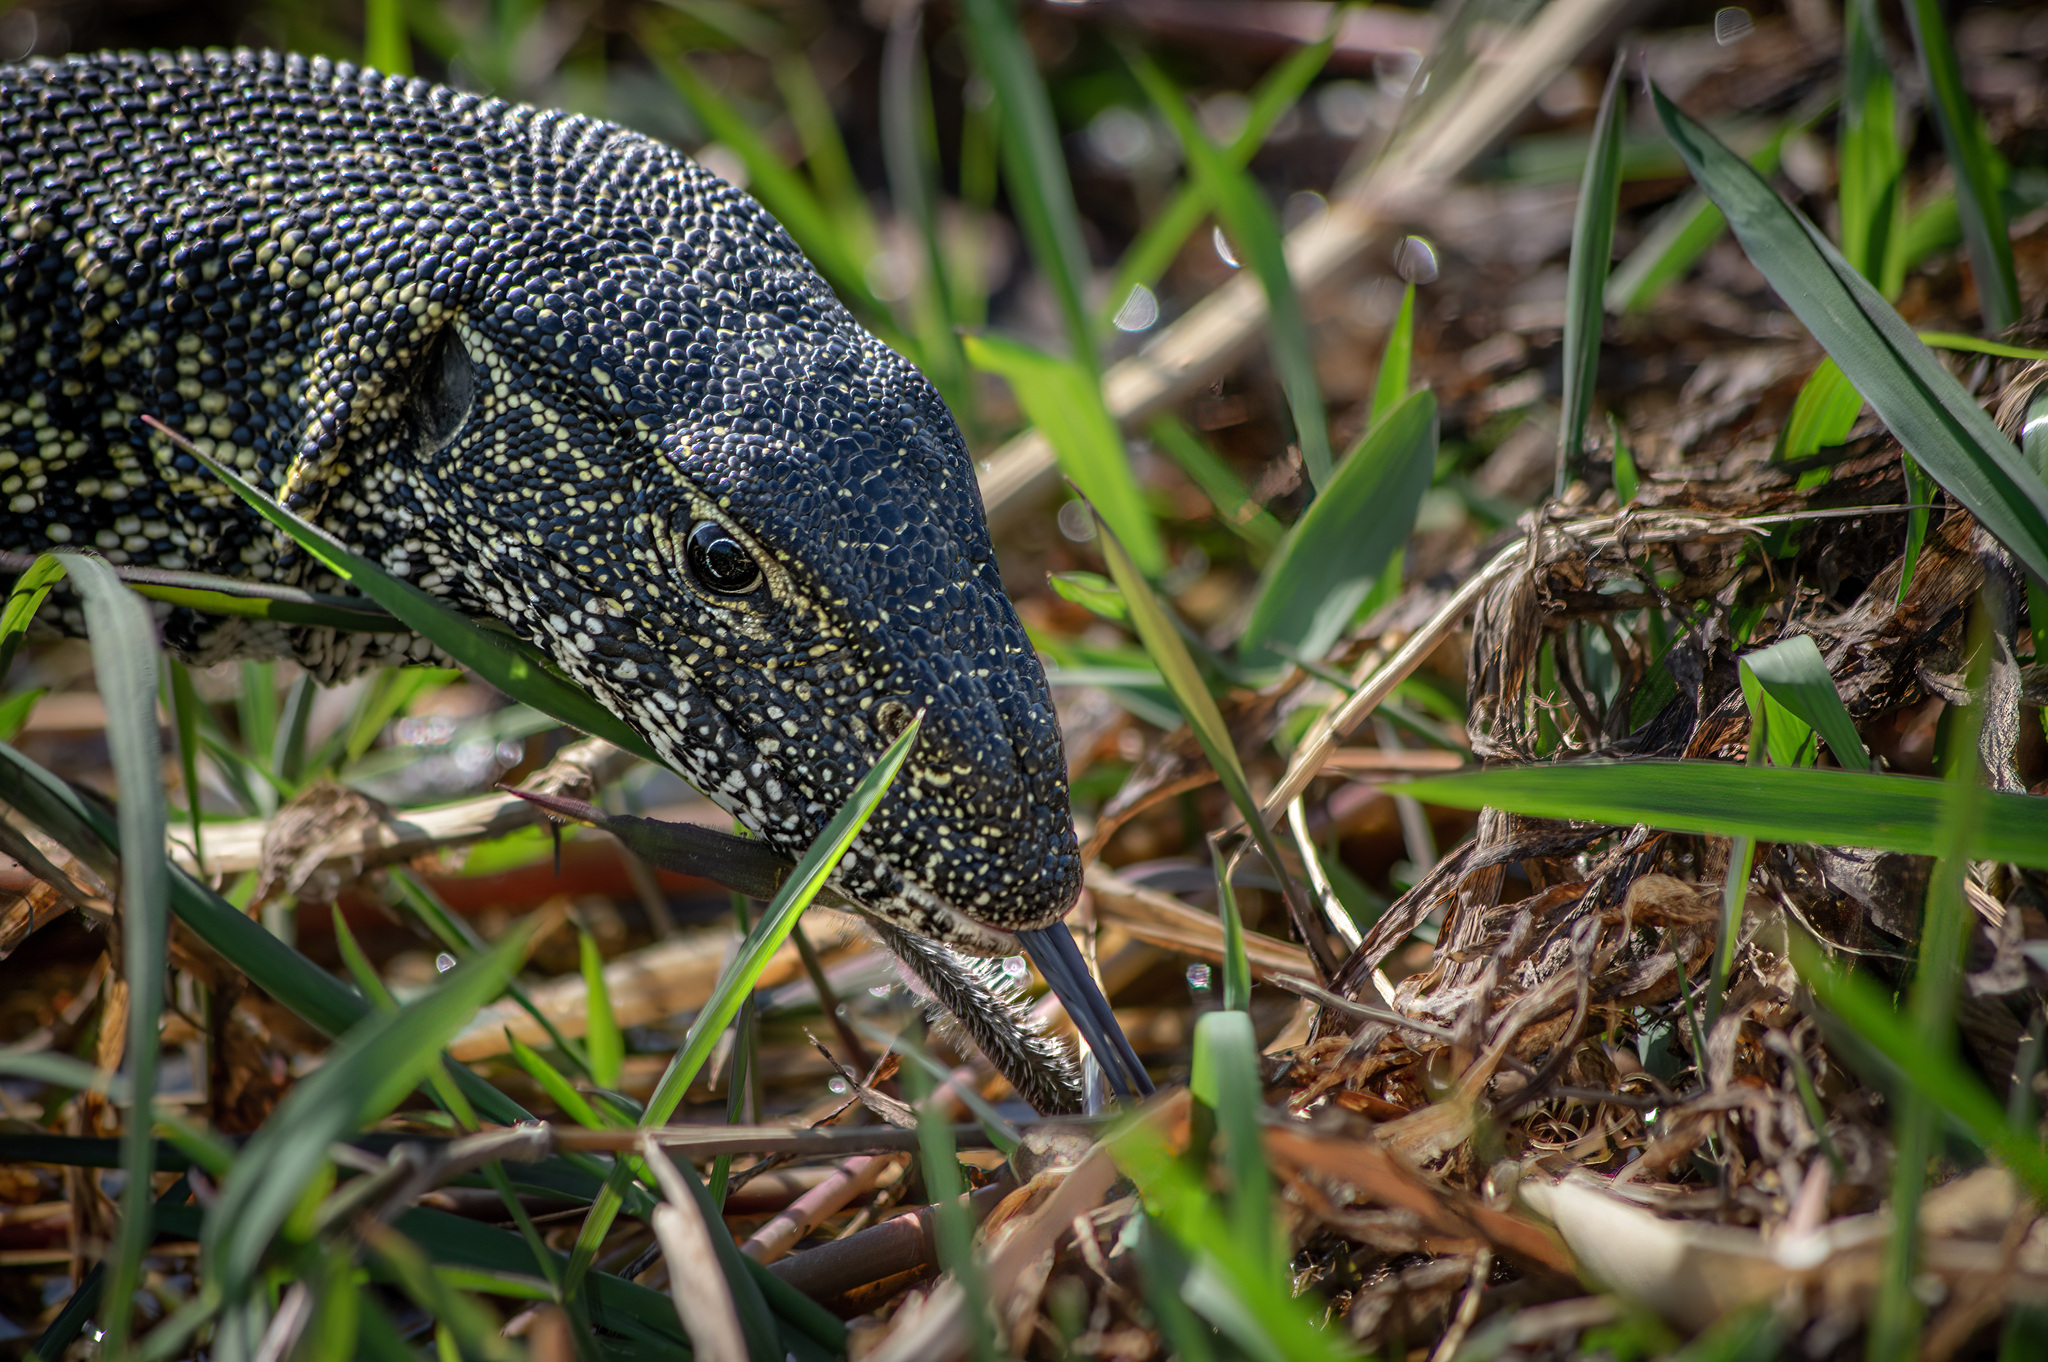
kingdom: Animalia
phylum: Chordata
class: Squamata
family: Varanidae
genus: Varanus
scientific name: Varanus niloticus
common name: Nile monitor
